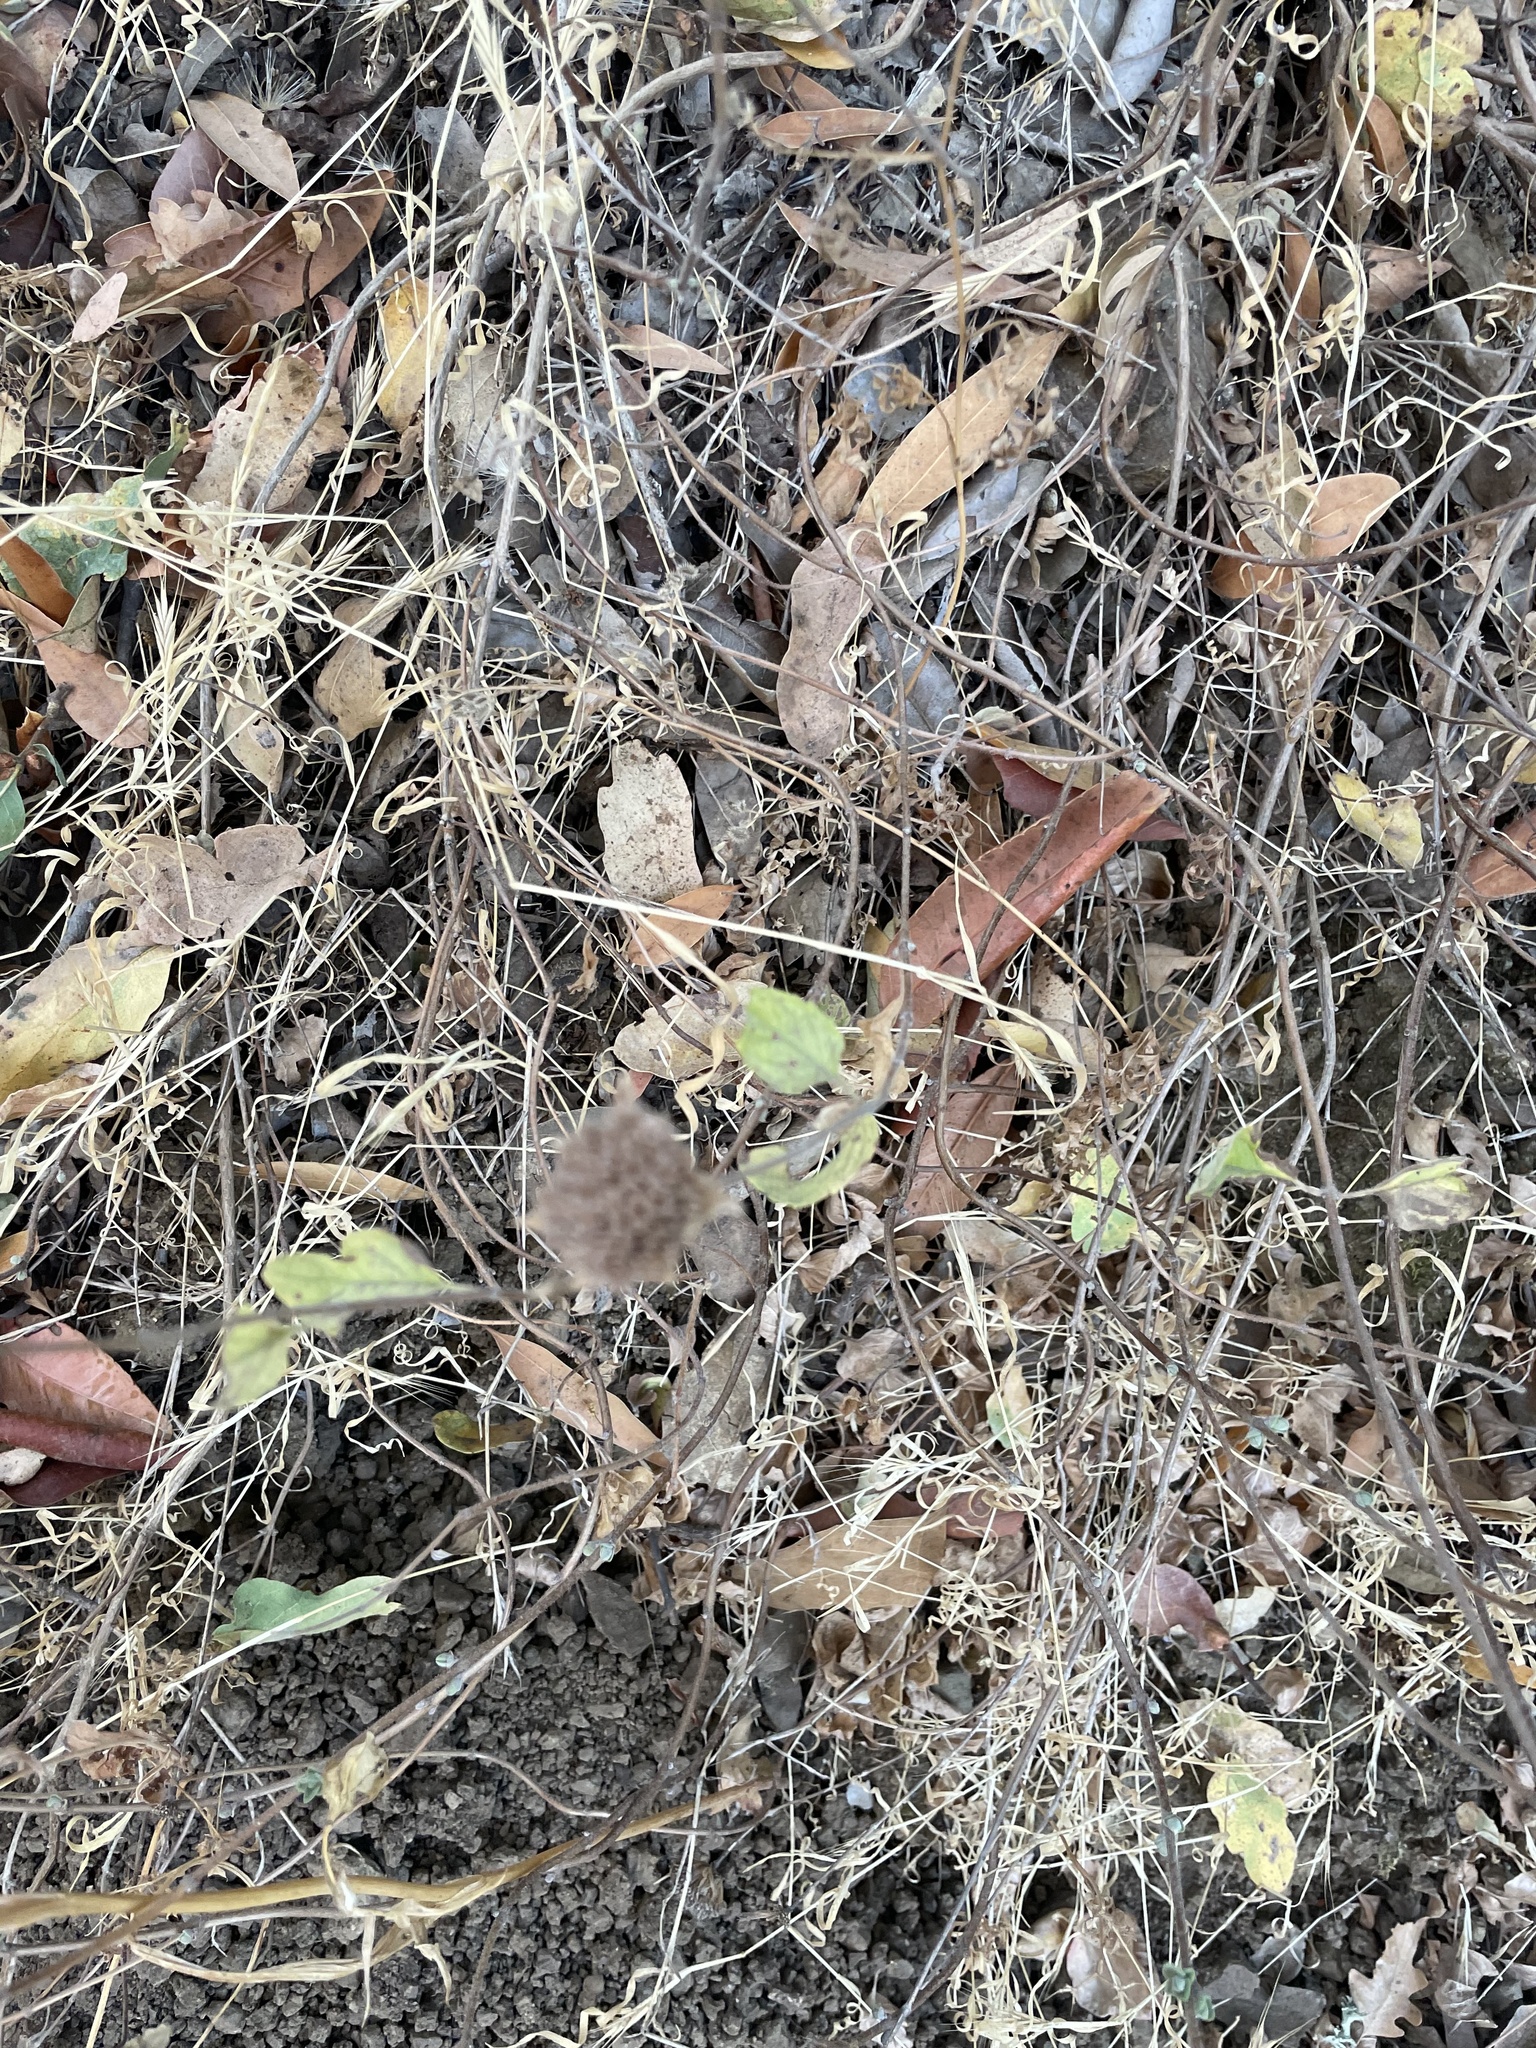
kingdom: Plantae
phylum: Tracheophyta
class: Magnoliopsida
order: Lamiales
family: Lamiaceae
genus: Monardella
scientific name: Monardella odoratissima
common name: Pacific monardella
